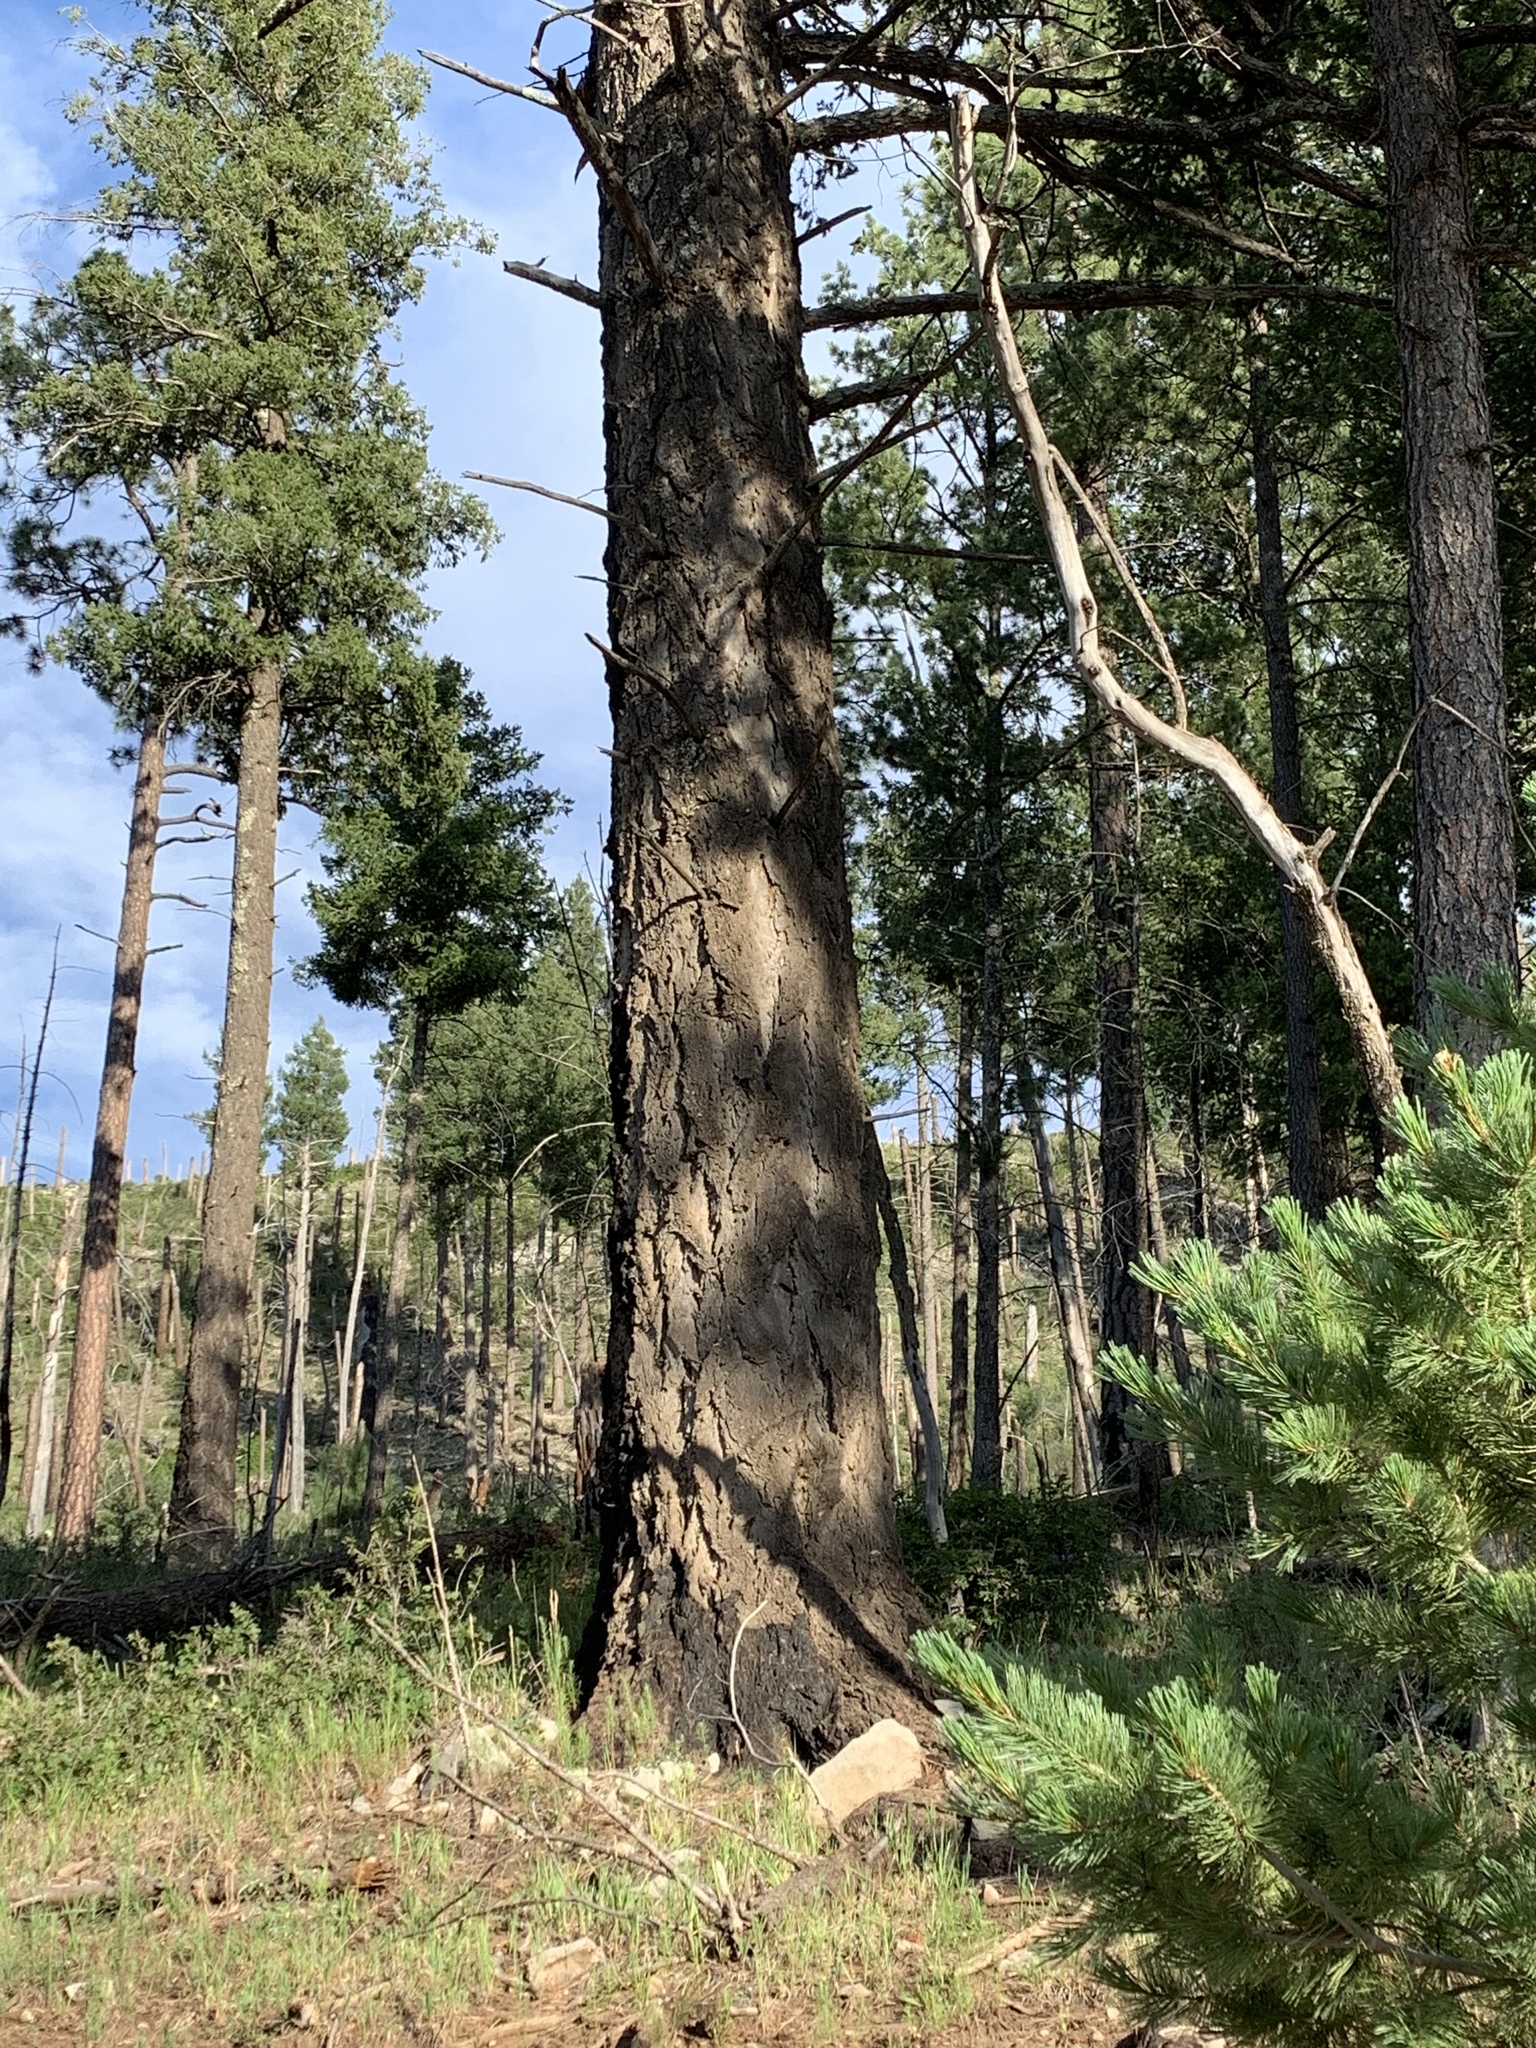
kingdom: Plantae
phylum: Tracheophyta
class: Pinopsida
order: Pinales
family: Pinaceae
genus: Pseudotsuga
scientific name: Pseudotsuga menziesii
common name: Douglas fir
